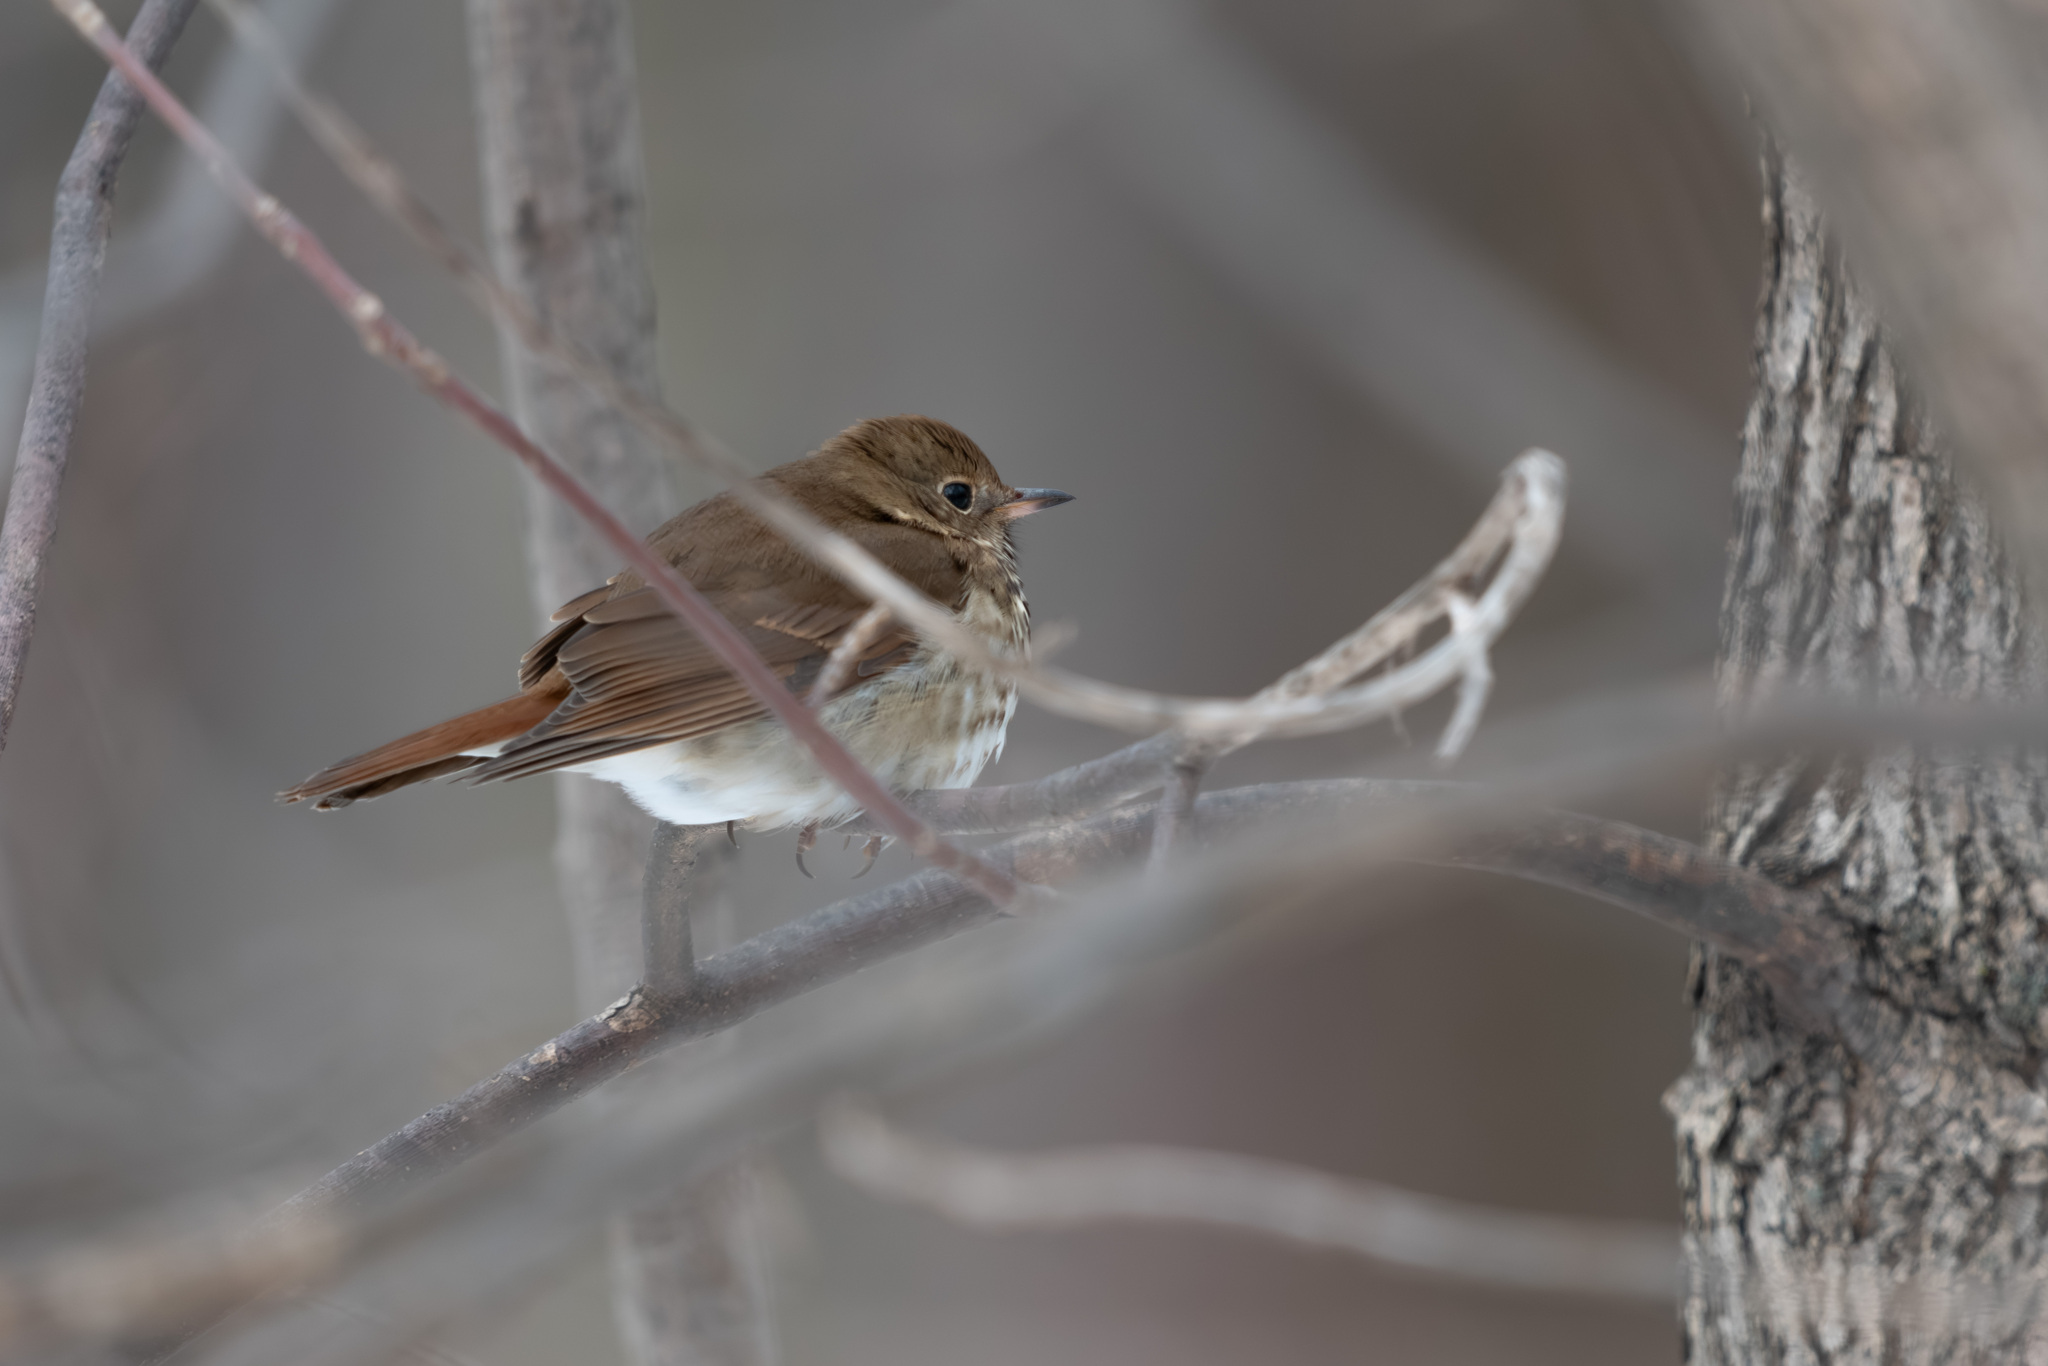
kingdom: Animalia
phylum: Chordata
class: Aves
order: Passeriformes
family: Turdidae
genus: Catharus
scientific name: Catharus guttatus
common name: Hermit thrush
